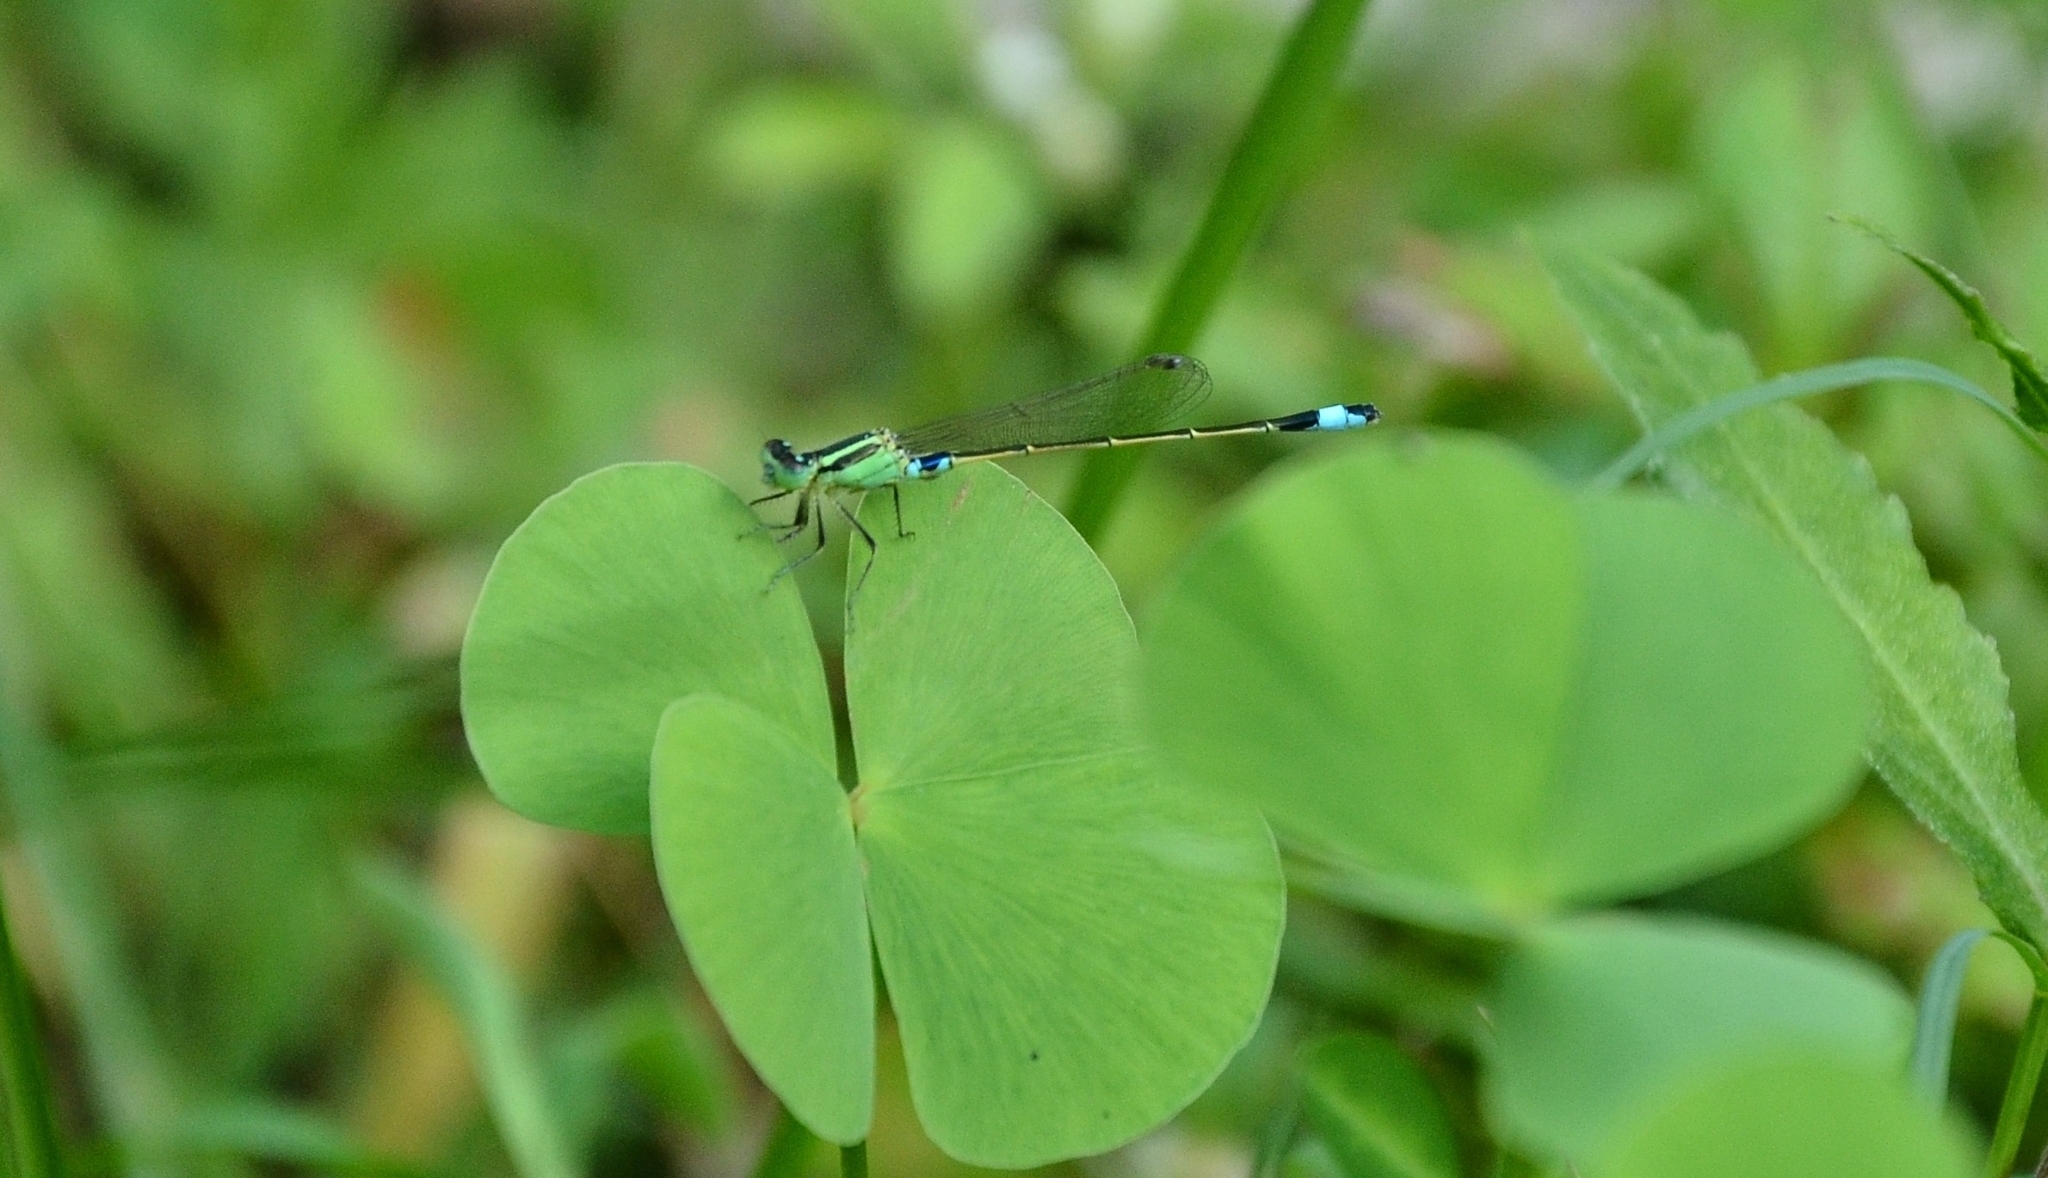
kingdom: Animalia
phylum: Arthropoda
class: Insecta
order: Odonata
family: Coenagrionidae
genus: Ischnura
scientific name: Ischnura senegalensis
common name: Tropical bluetail
